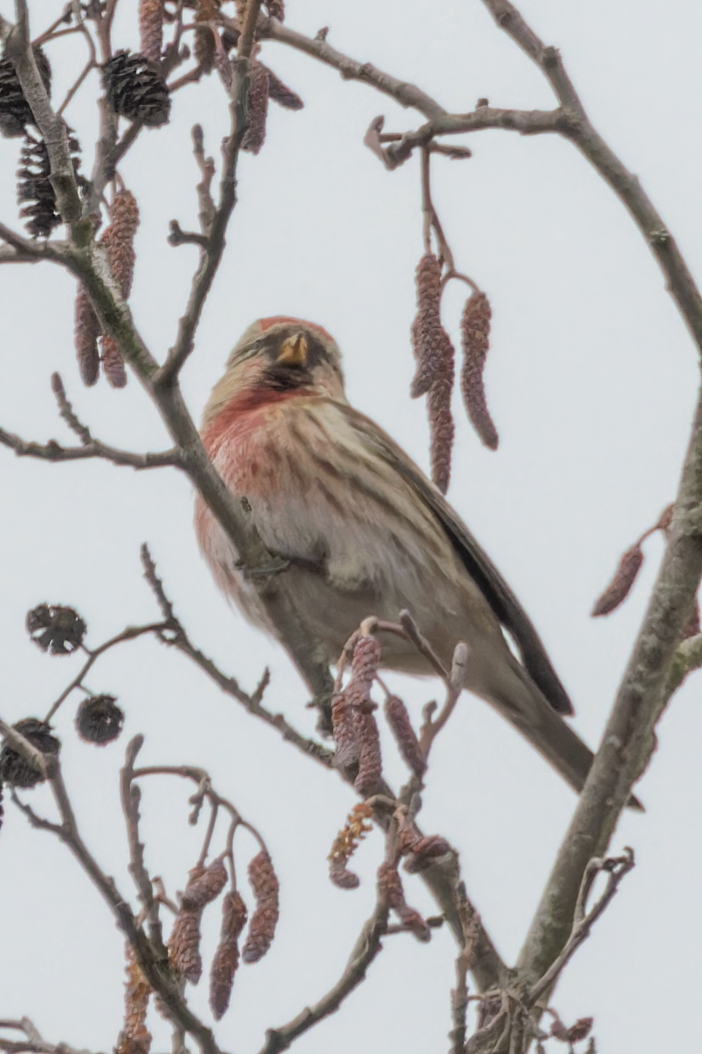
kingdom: Animalia
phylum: Chordata
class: Aves
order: Passeriformes
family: Fringillidae
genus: Acanthis
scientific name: Acanthis flammea
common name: Common redpoll
